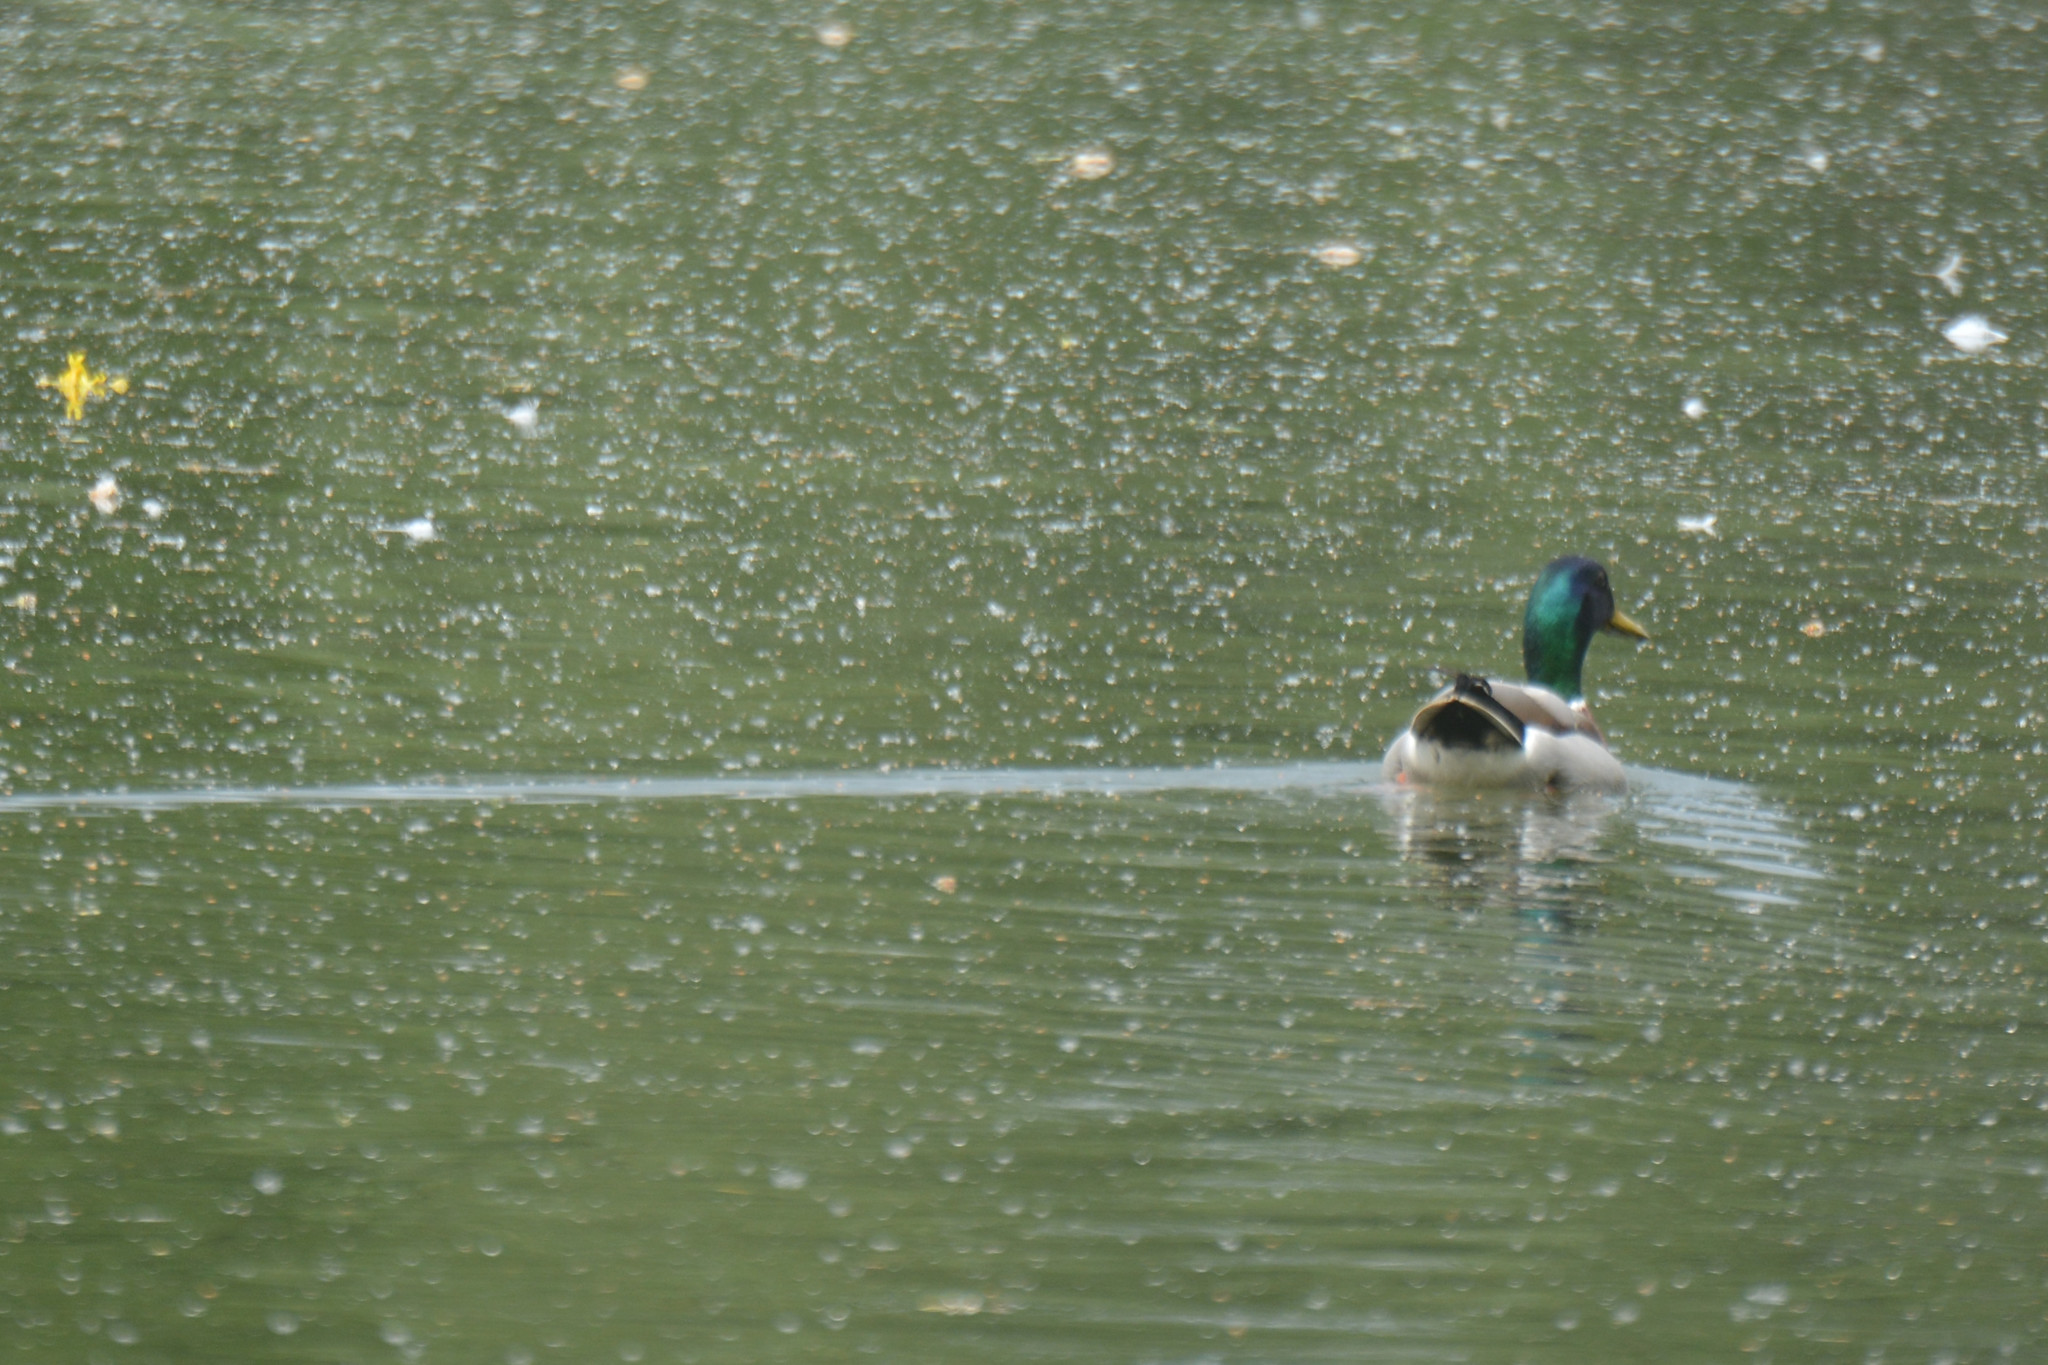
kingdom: Animalia
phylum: Chordata
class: Aves
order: Anseriformes
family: Anatidae
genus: Anas
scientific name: Anas platyrhynchos
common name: Mallard
